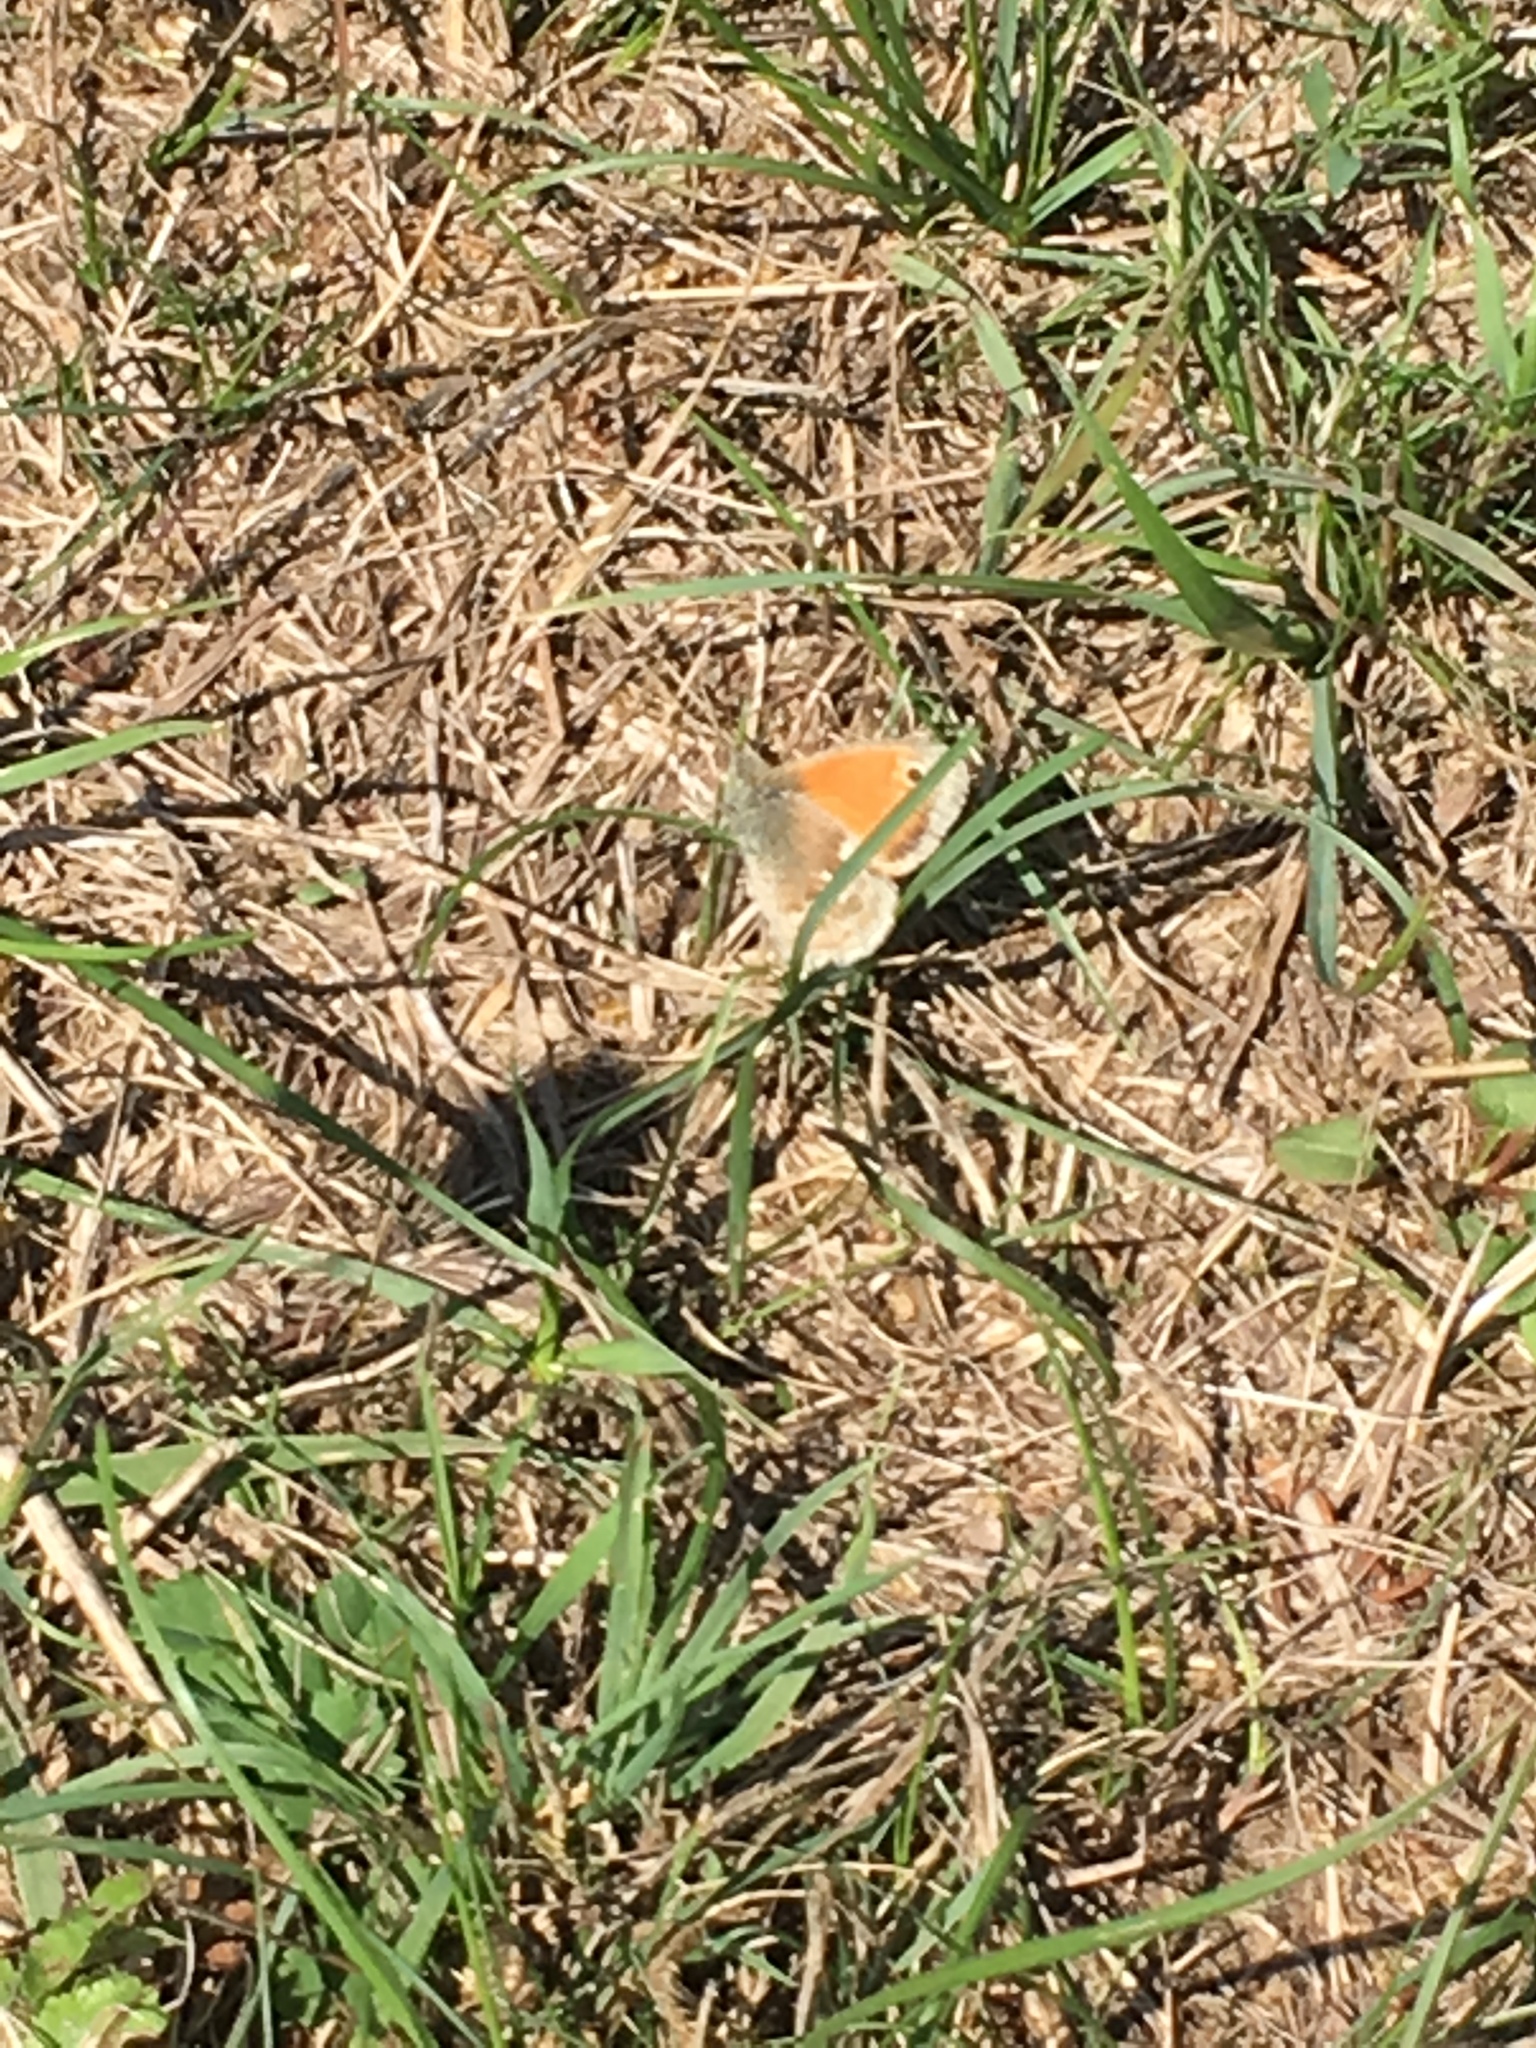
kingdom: Animalia
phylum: Arthropoda
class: Insecta
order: Lepidoptera
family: Nymphalidae
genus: Coenonympha
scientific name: Coenonympha pamphilus
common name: Small heath
